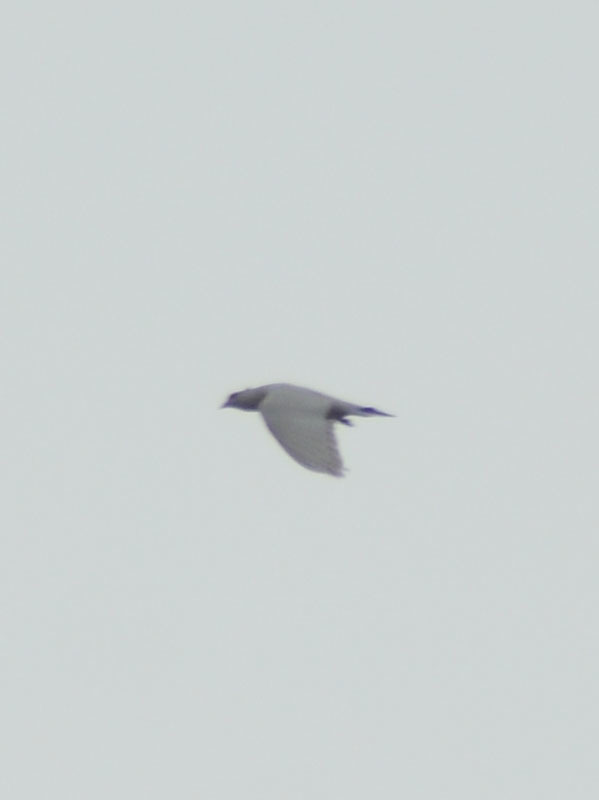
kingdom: Animalia
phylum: Chordata
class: Aves
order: Columbiformes
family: Columbidae
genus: Columba
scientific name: Columba livia
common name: Rock pigeon
